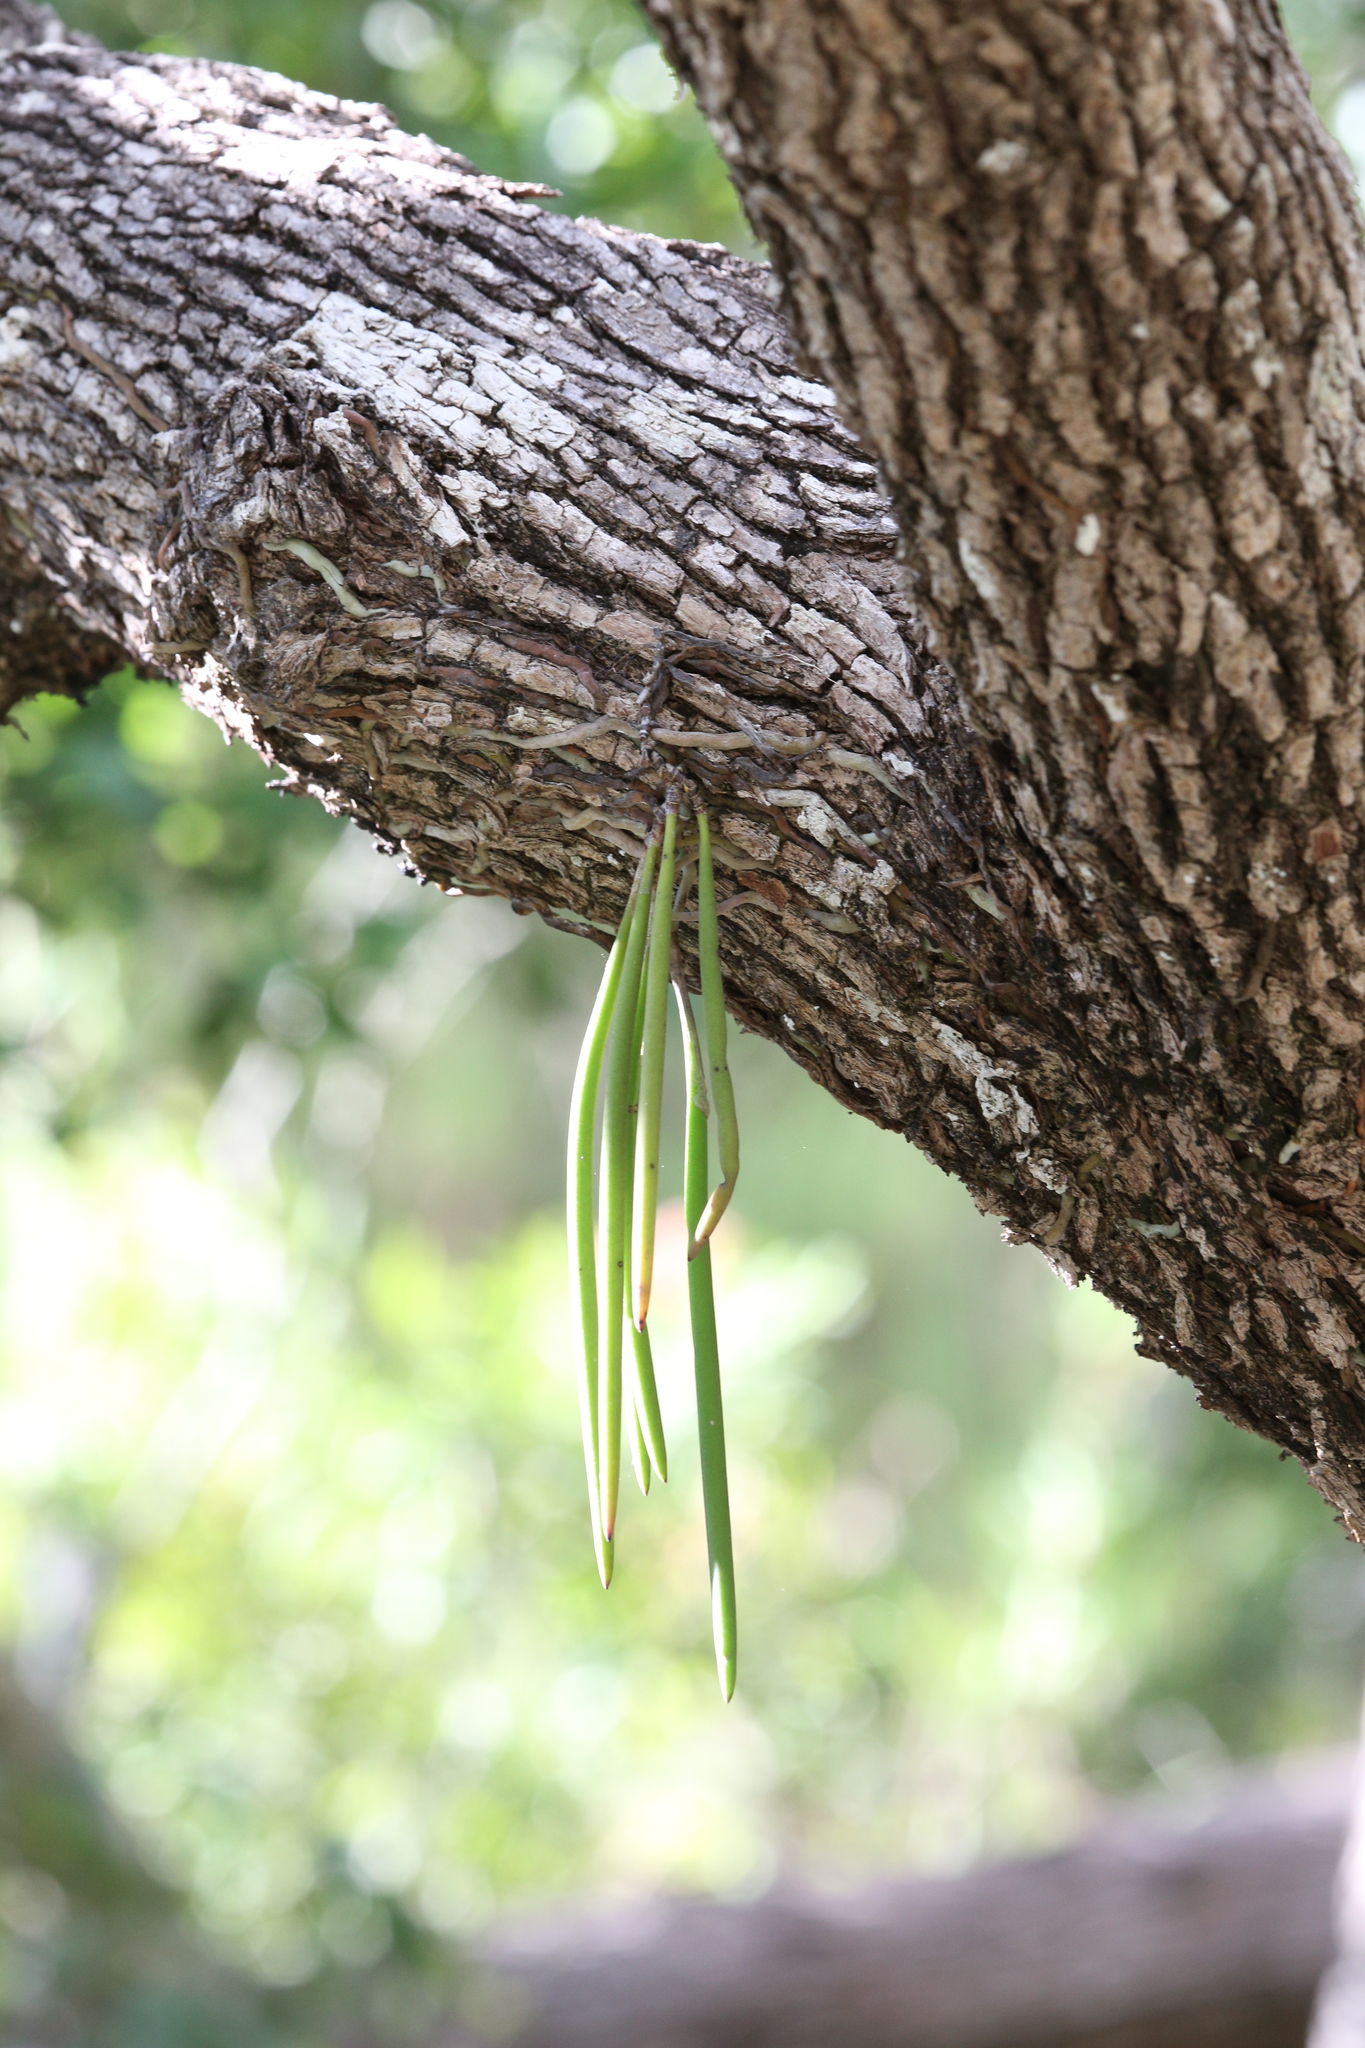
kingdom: Plantae
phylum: Tracheophyta
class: Liliopsida
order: Asparagales
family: Orchidaceae
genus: Dendrobium
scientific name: Dendrobium teretifolium
